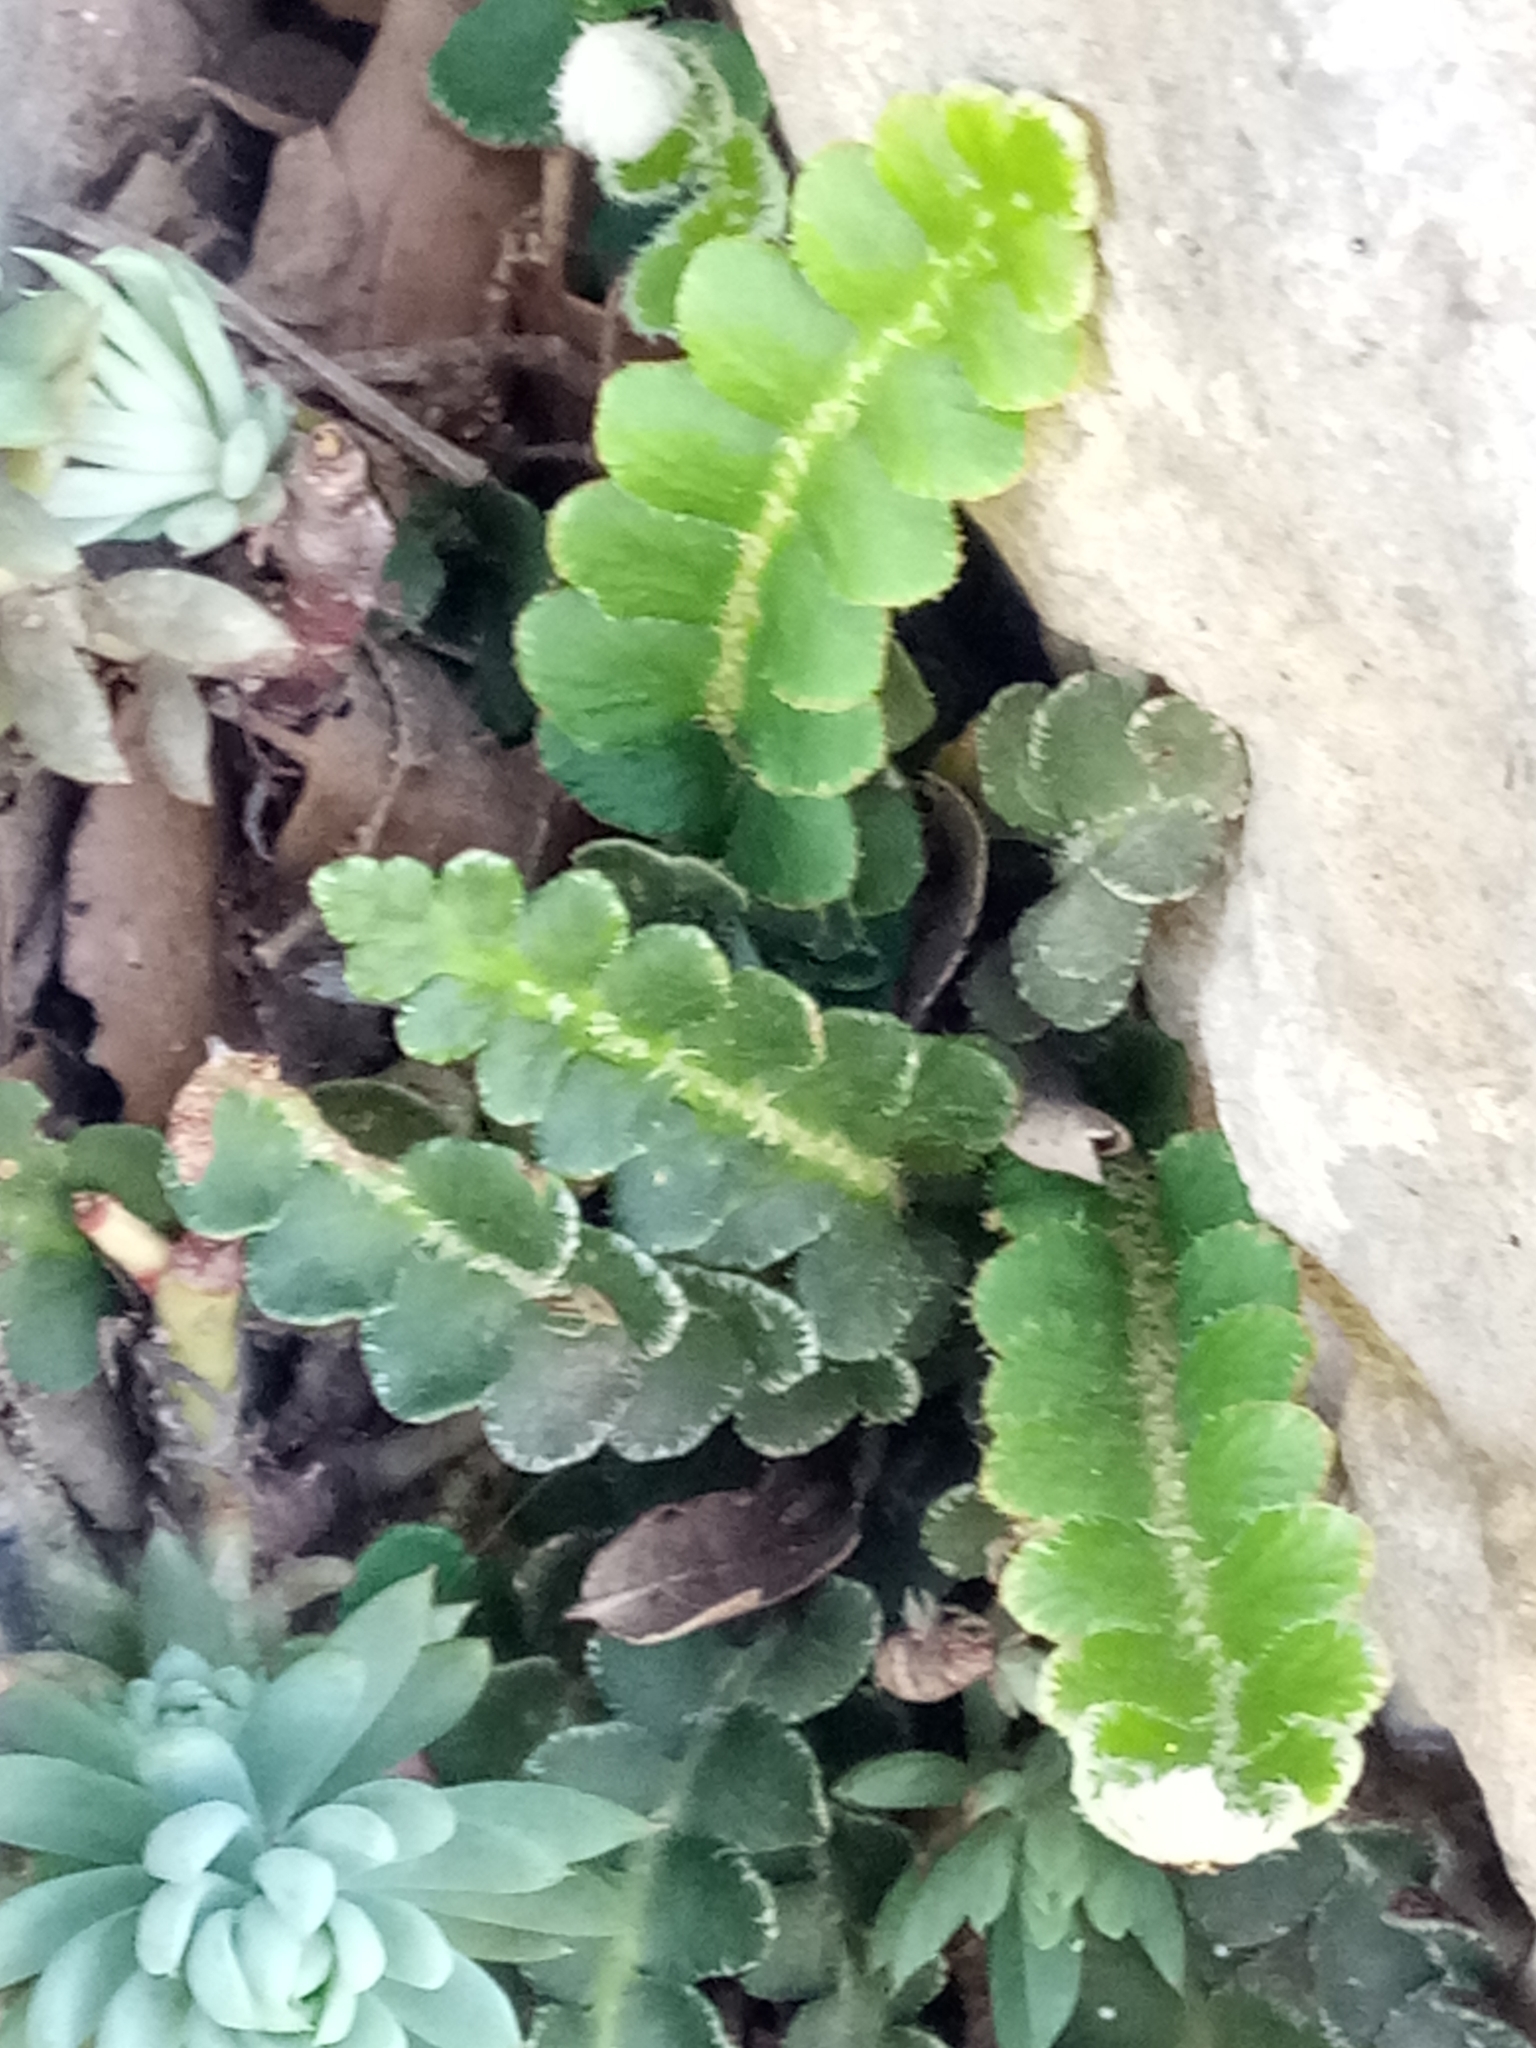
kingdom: Plantae
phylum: Tracheophyta
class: Polypodiopsida
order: Polypodiales
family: Aspleniaceae
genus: Asplenium
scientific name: Asplenium ceterach
